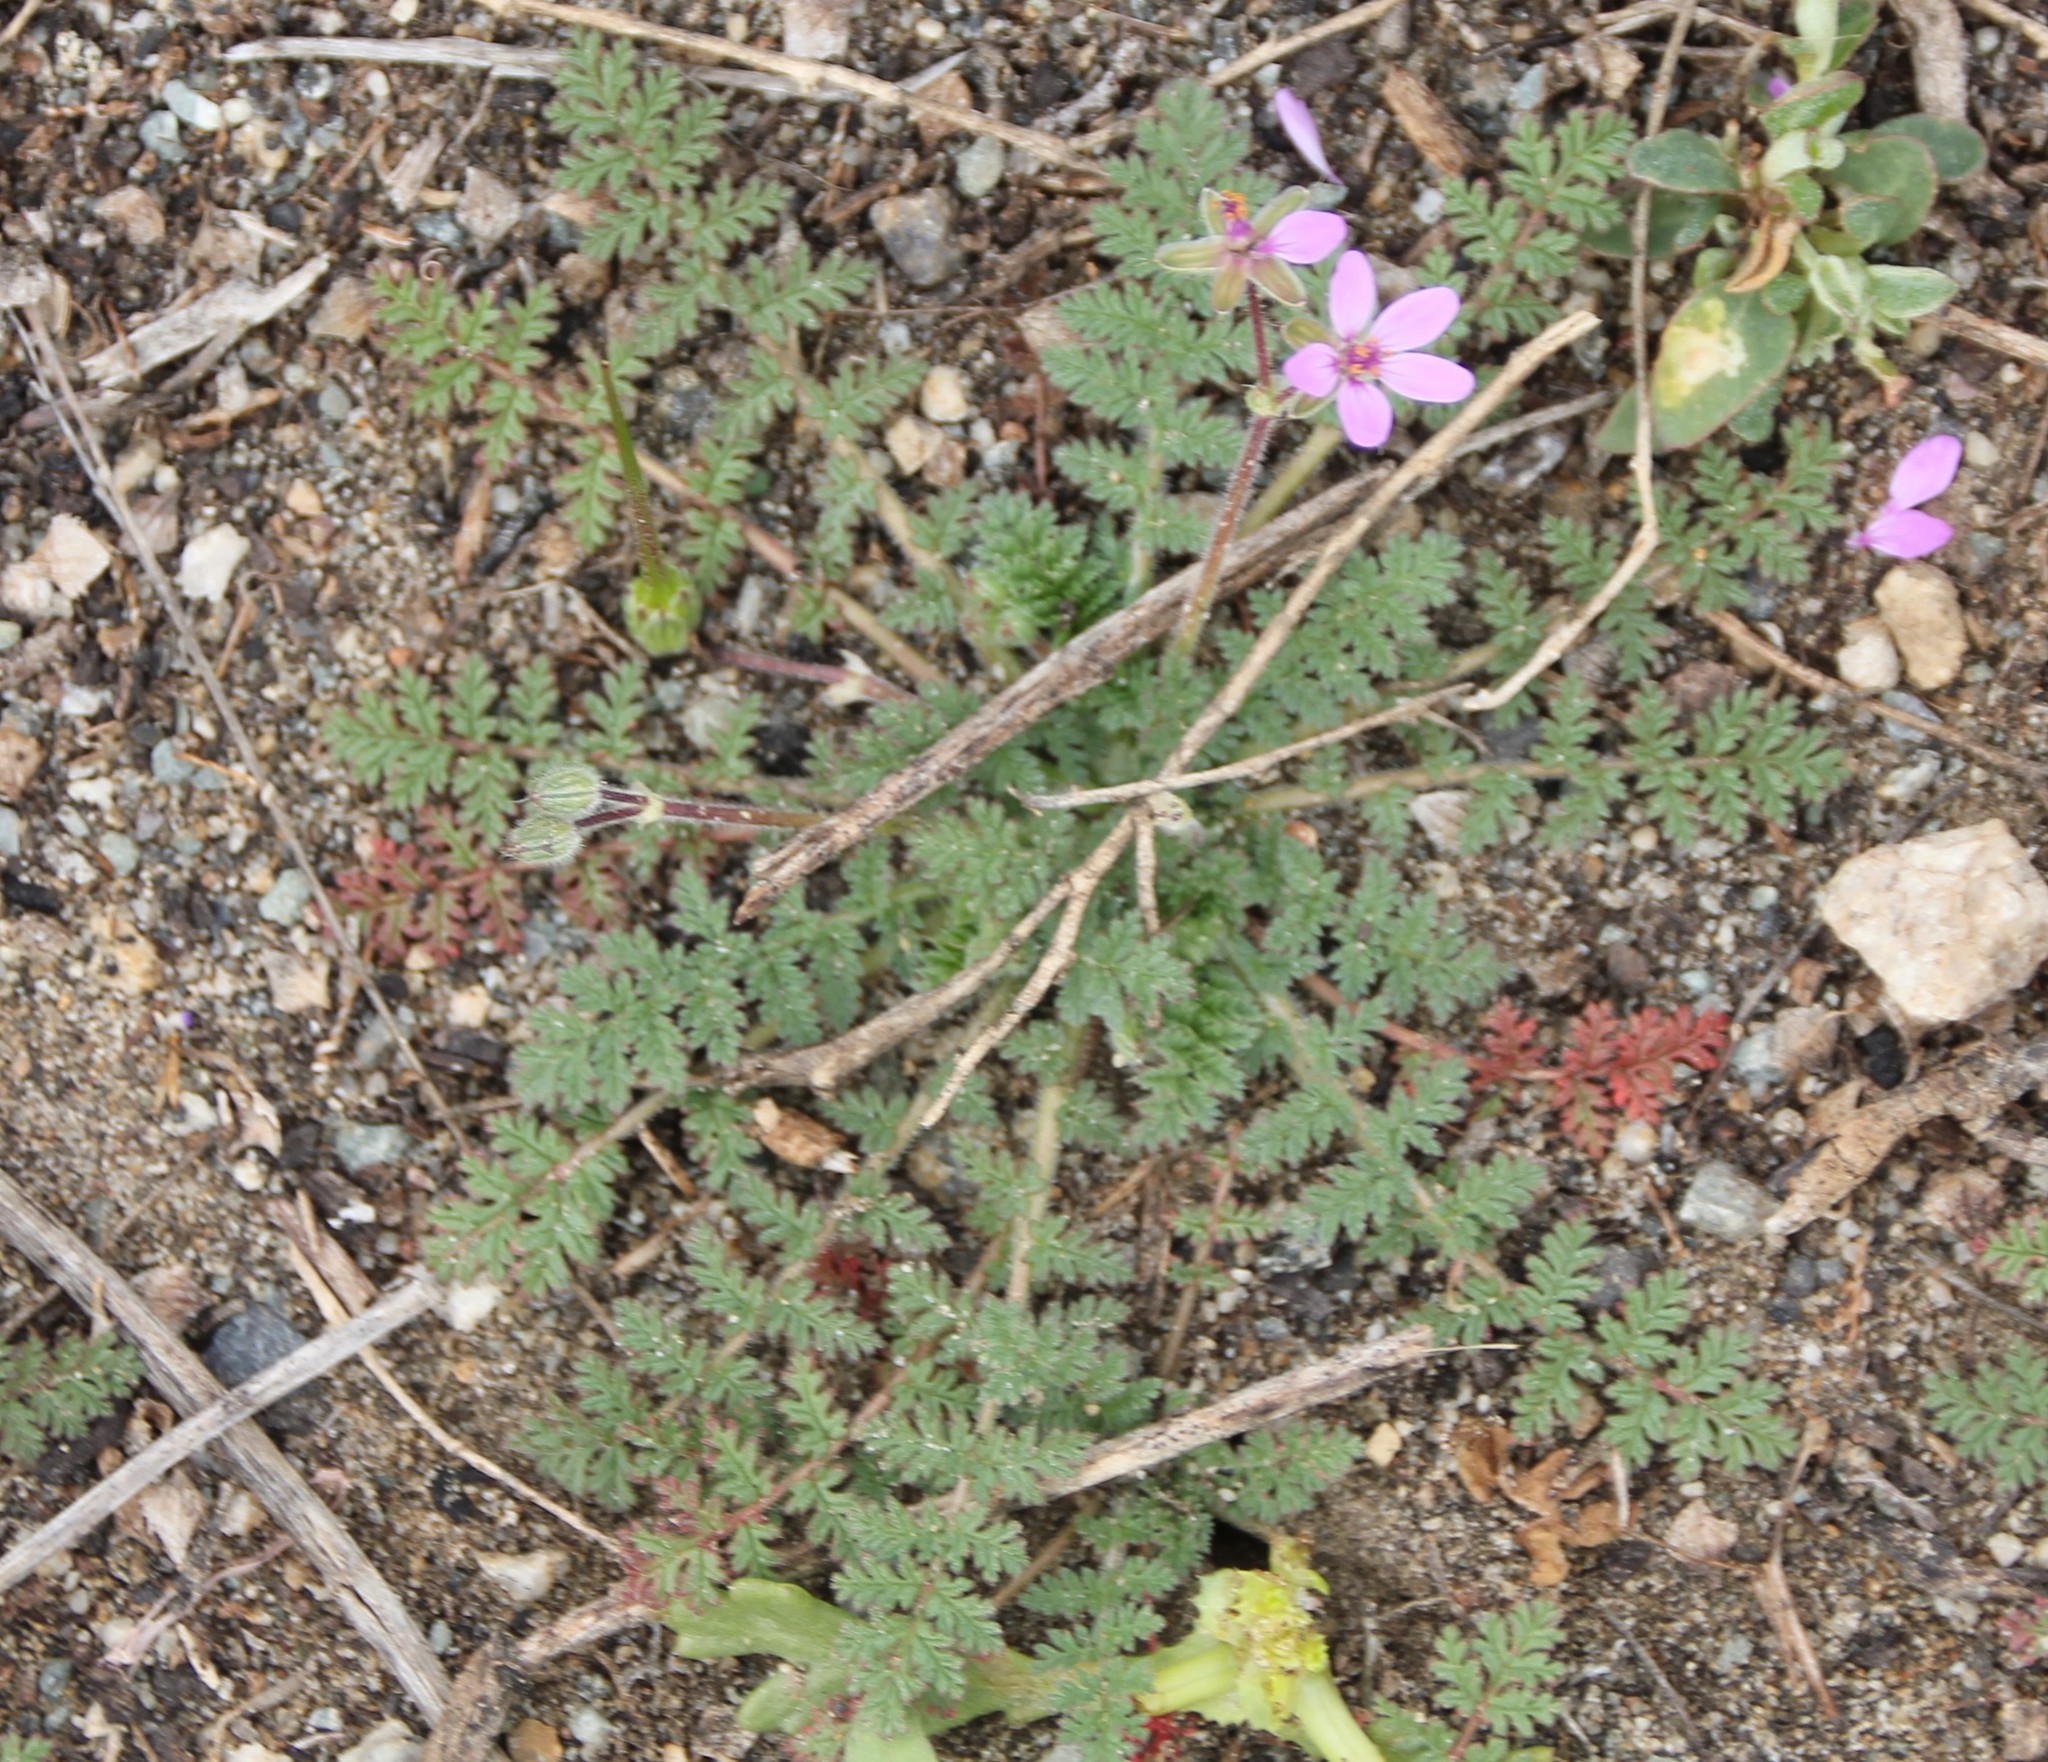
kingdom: Plantae
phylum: Tracheophyta
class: Magnoliopsida
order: Geraniales
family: Geraniaceae
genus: Erodium
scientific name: Erodium cicutarium
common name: Common stork's-bill
